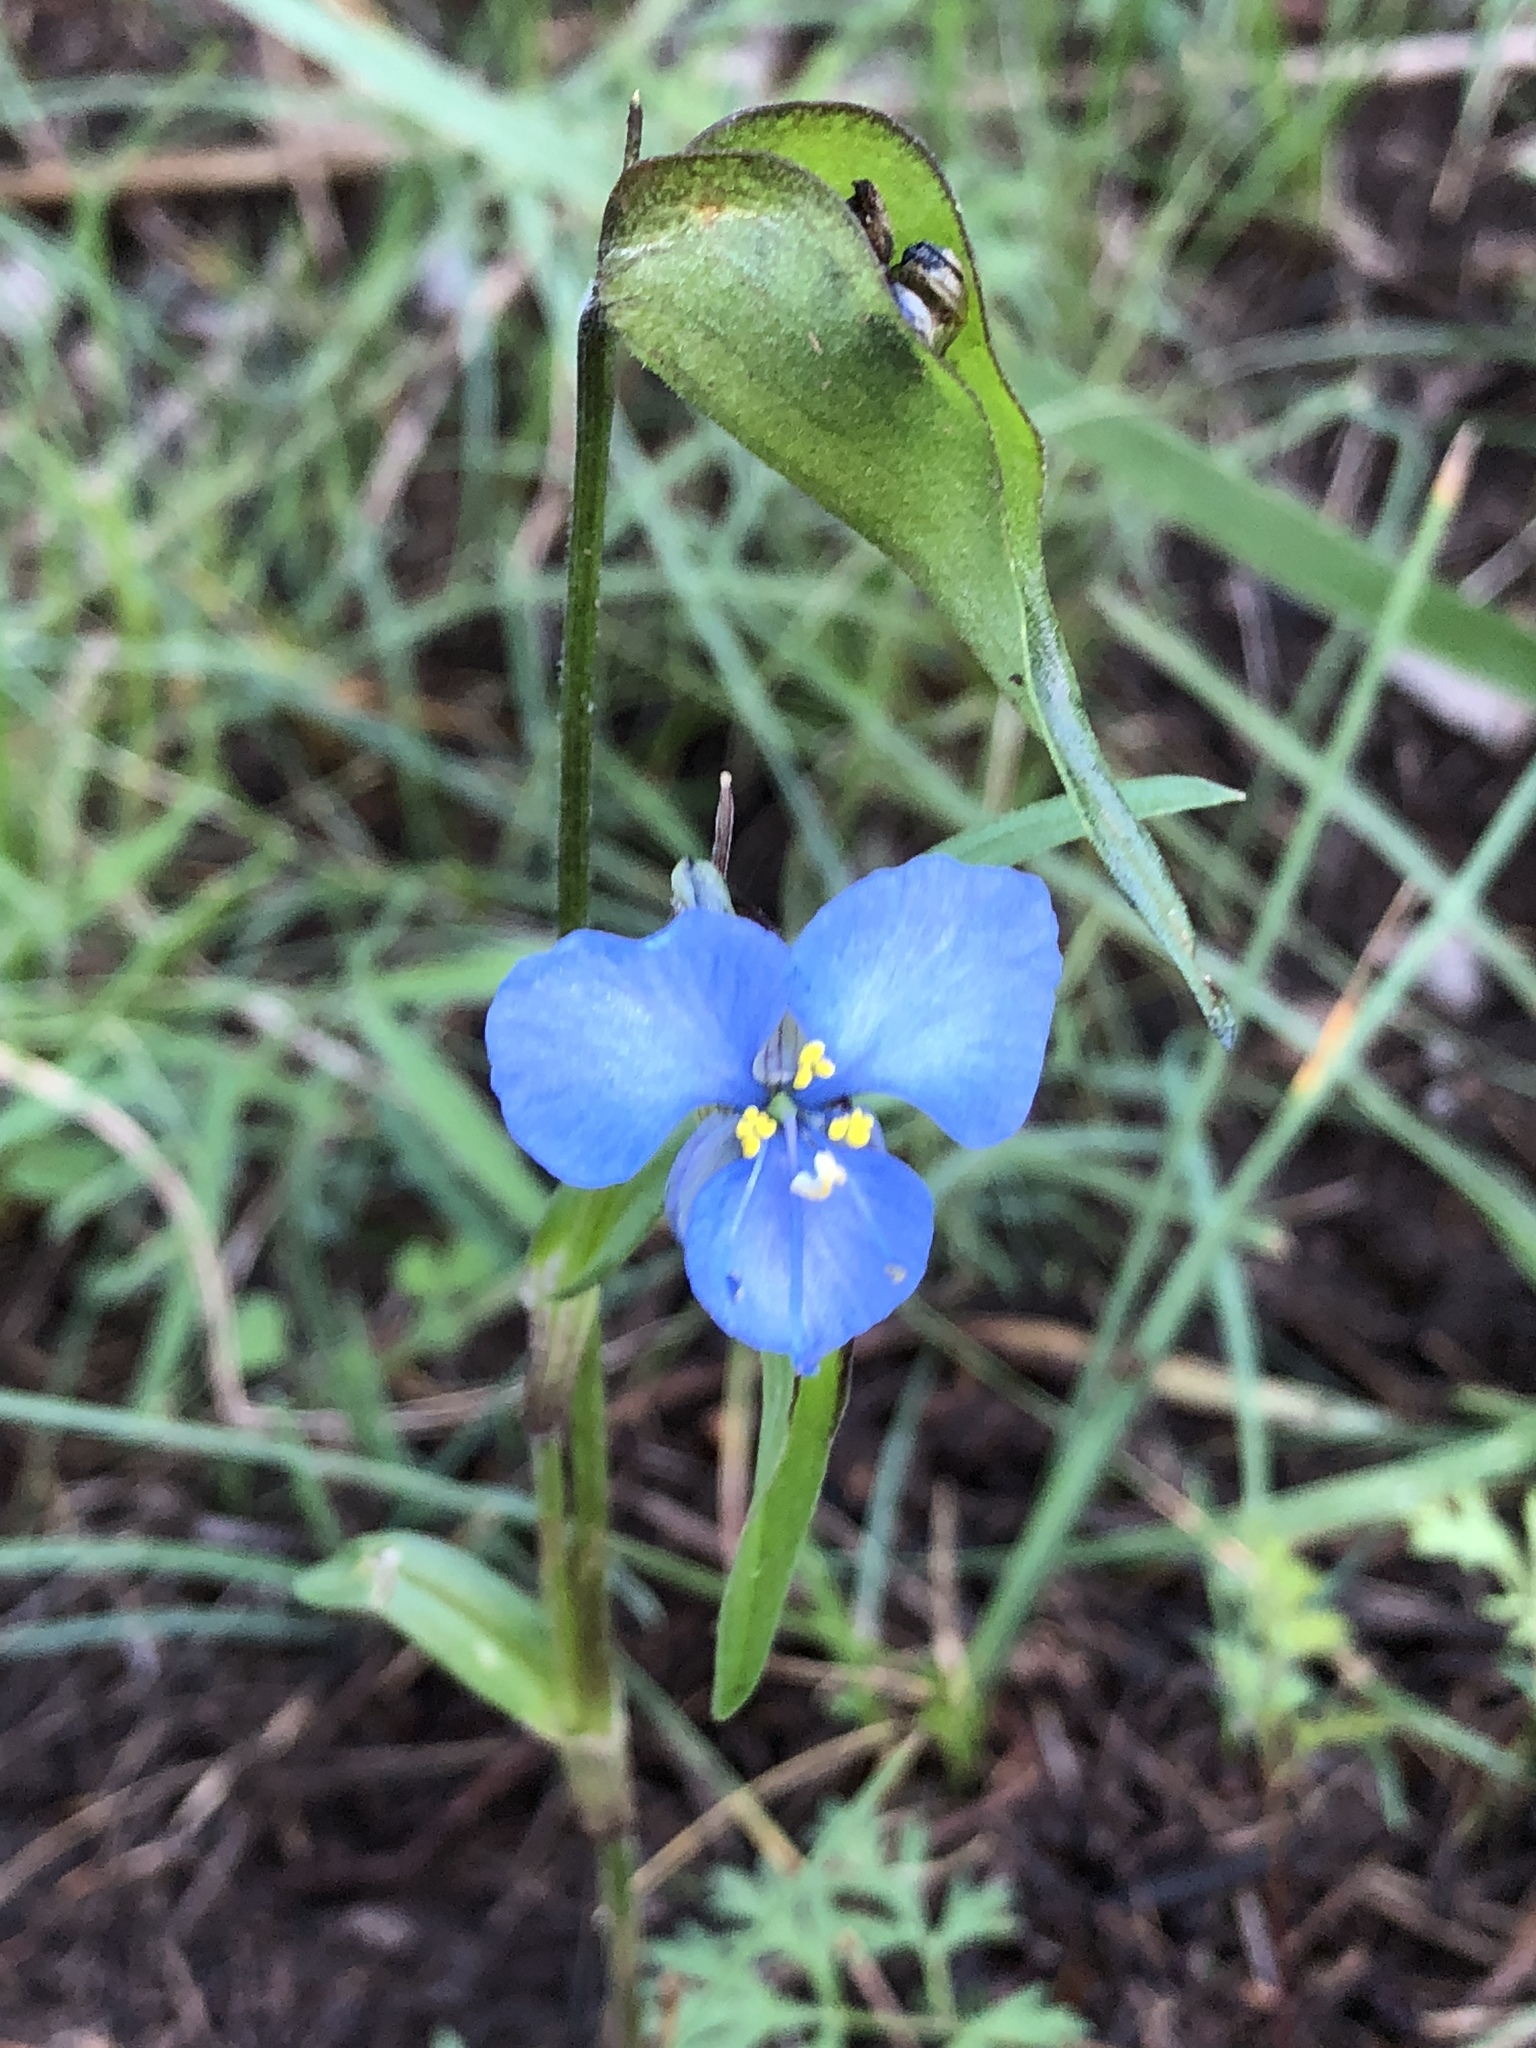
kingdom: Plantae
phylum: Tracheophyta
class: Liliopsida
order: Commelinales
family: Commelinaceae
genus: Commelina
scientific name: Commelina dianthifolia
